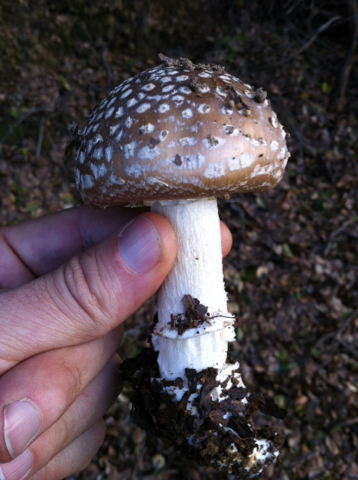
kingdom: Fungi
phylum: Basidiomycota
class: Agaricomycetes
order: Agaricales
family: Amanitaceae
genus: Amanita
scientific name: Amanita pantherina
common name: Panthercap
